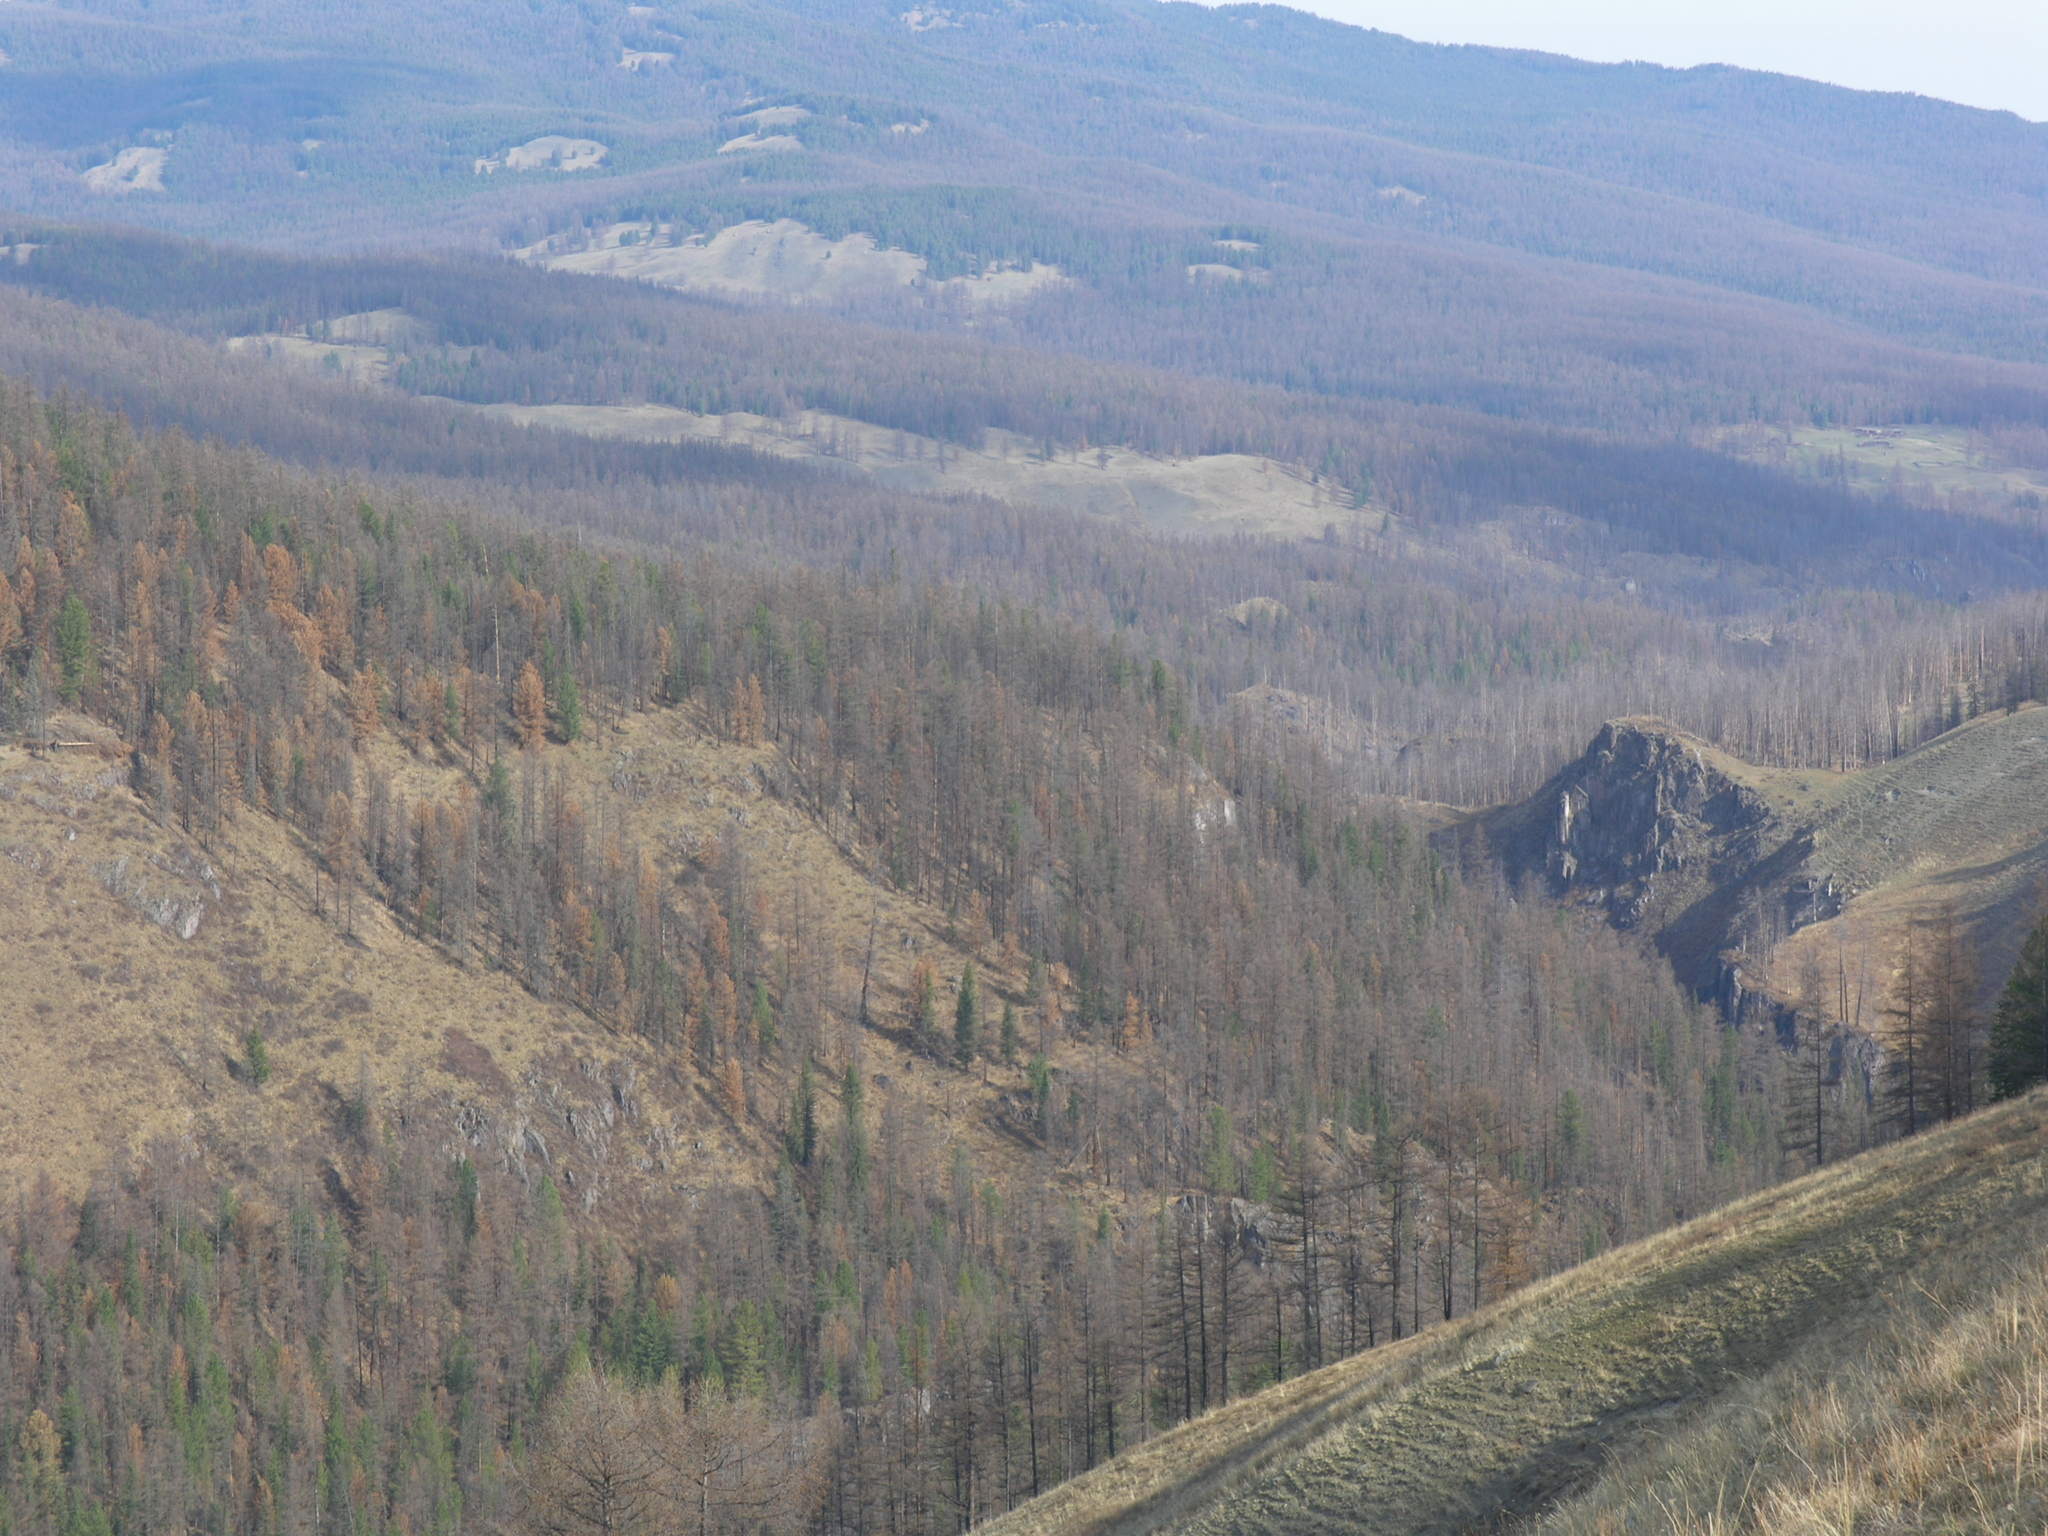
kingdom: Plantae
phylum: Tracheophyta
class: Pinopsida
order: Pinales
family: Pinaceae
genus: Larix
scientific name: Larix sibirica
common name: Siberian larch
